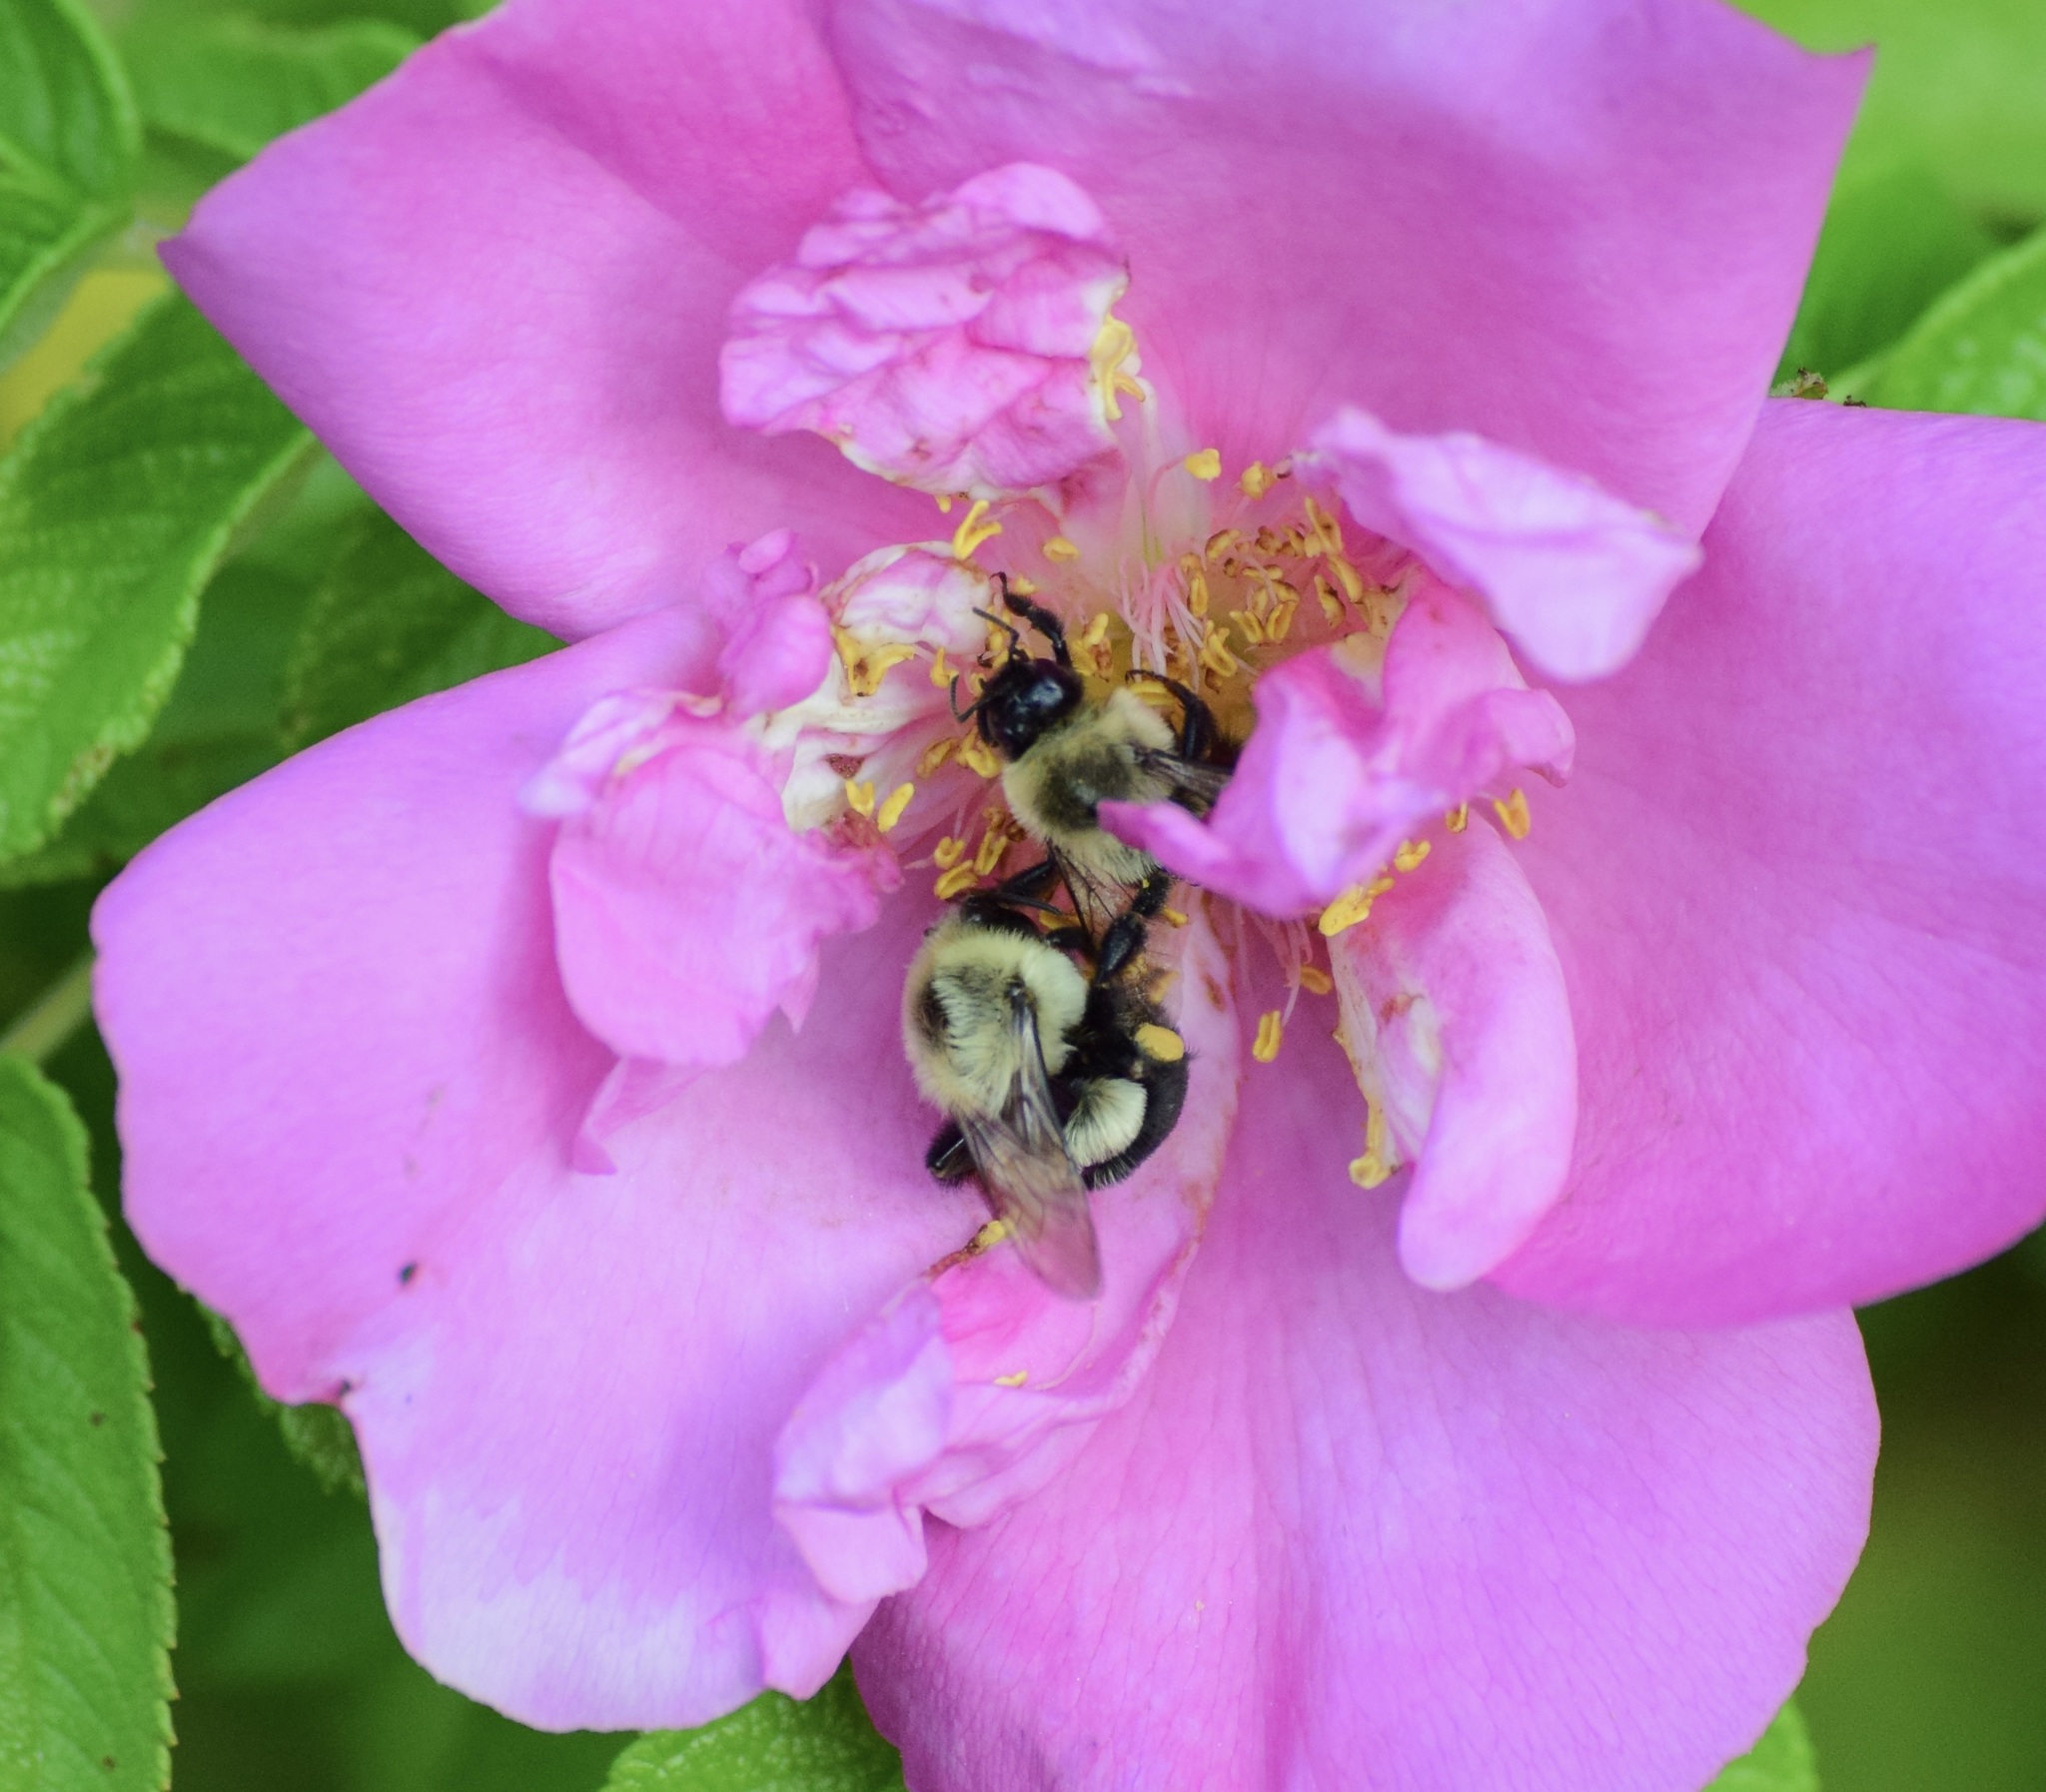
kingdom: Animalia
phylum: Arthropoda
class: Insecta
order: Hymenoptera
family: Apidae
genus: Bombus
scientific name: Bombus impatiens
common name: Common eastern bumble bee
